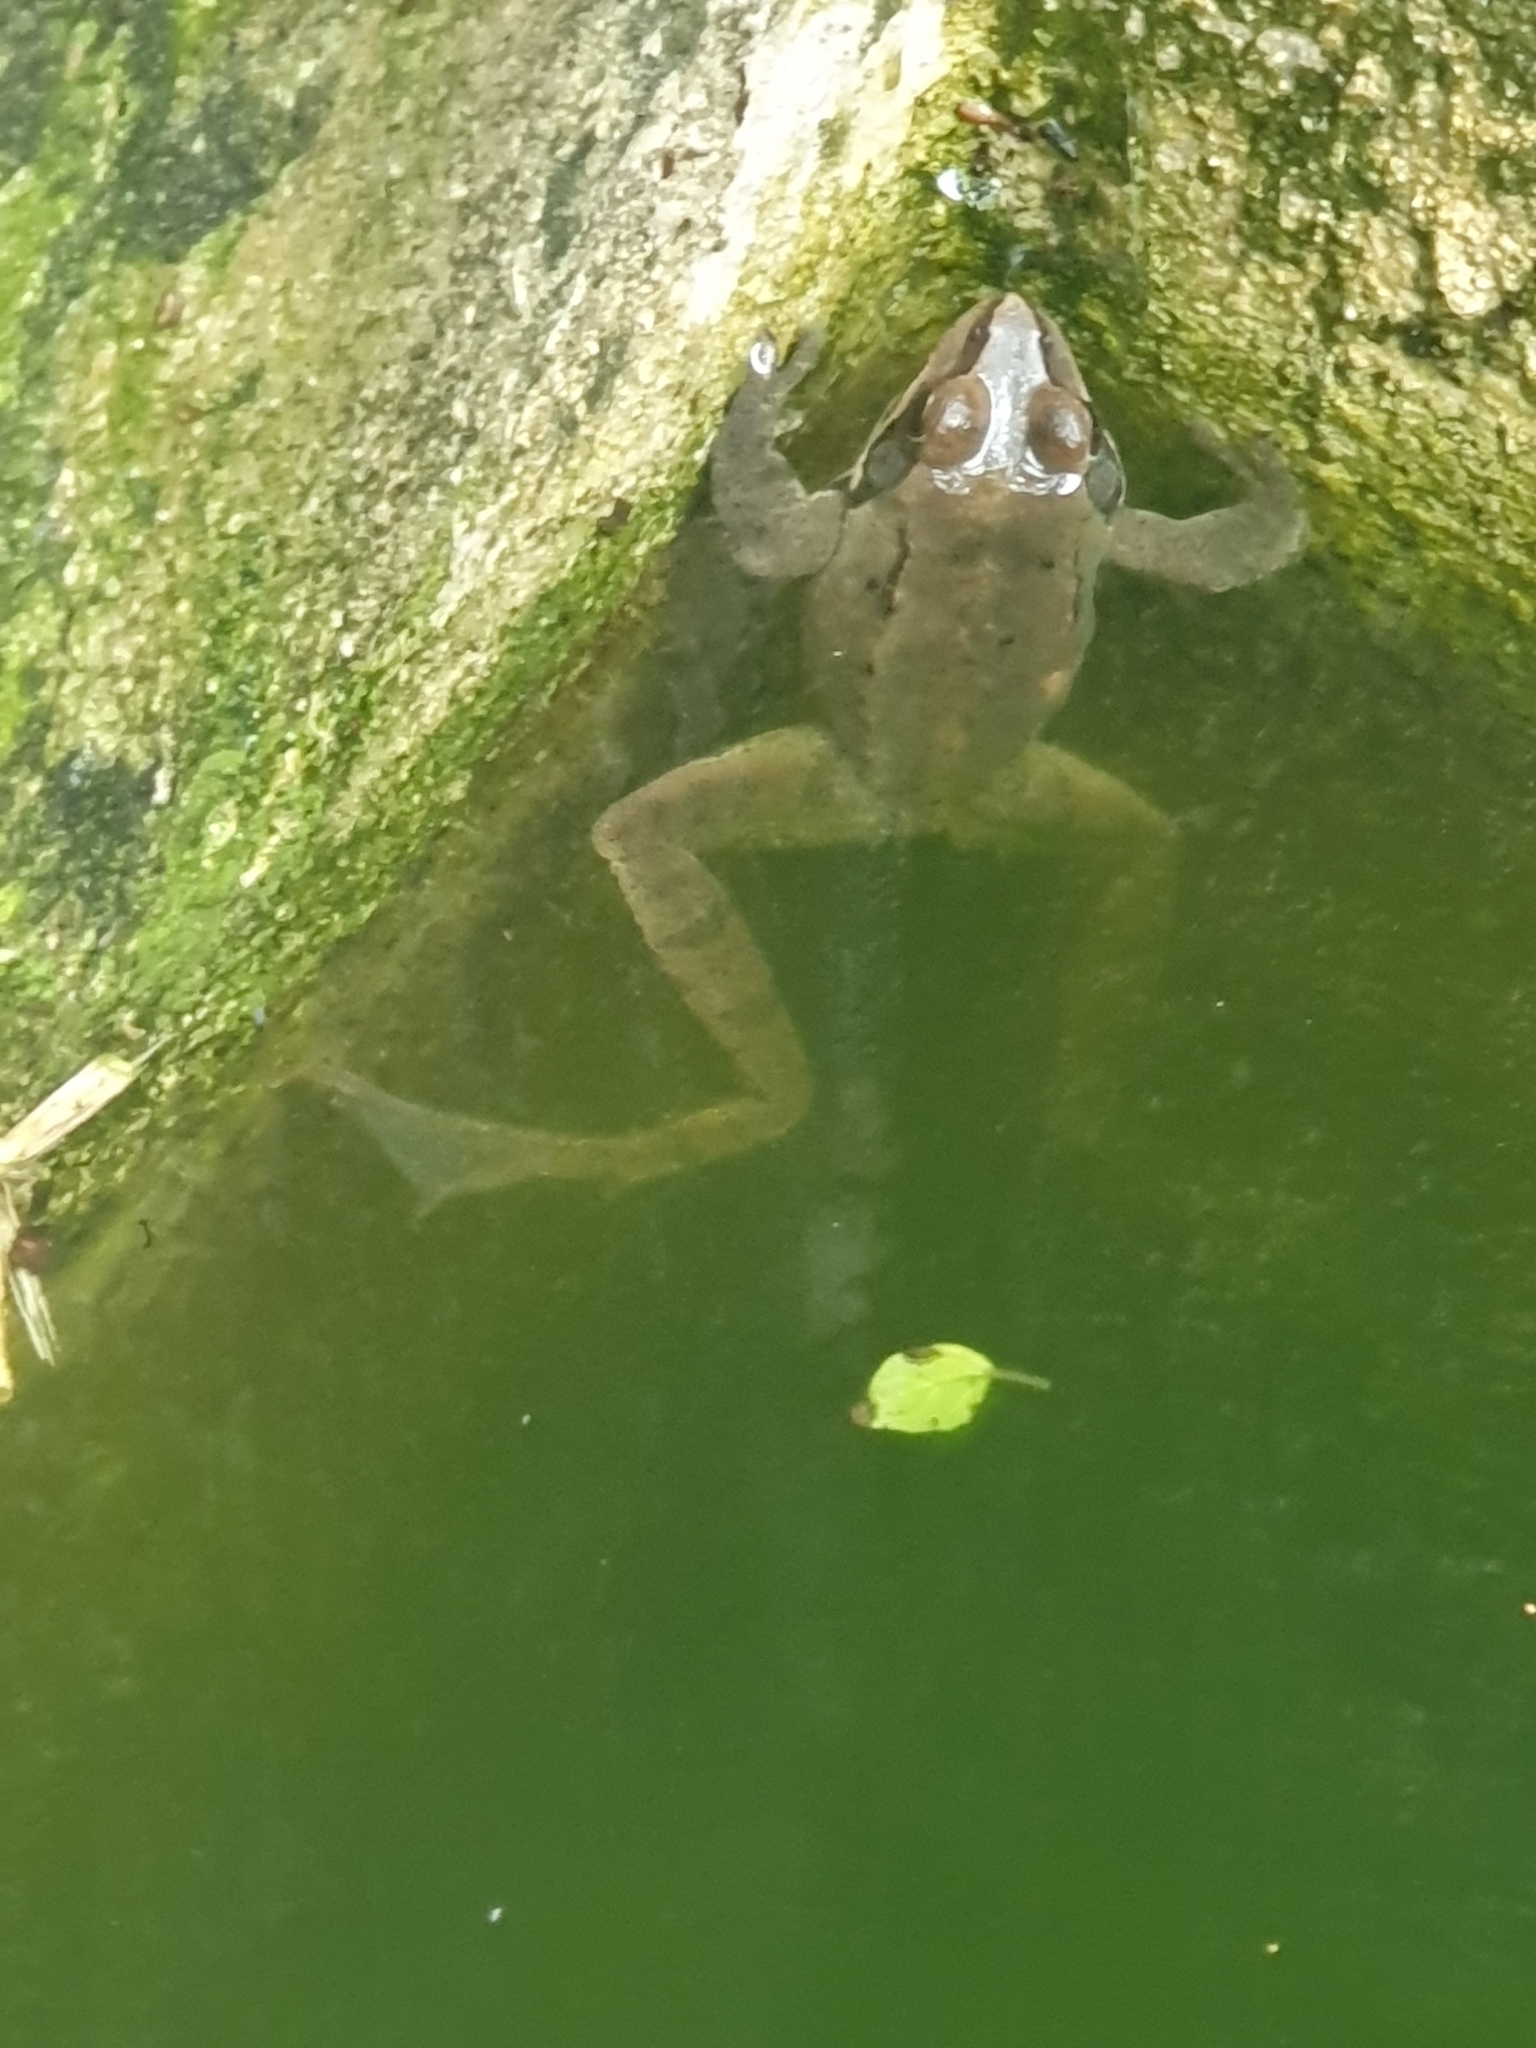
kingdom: Animalia
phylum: Chordata
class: Amphibia
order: Anura
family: Ranidae
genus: Rana
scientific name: Rana dalmatina
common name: Agile frog
